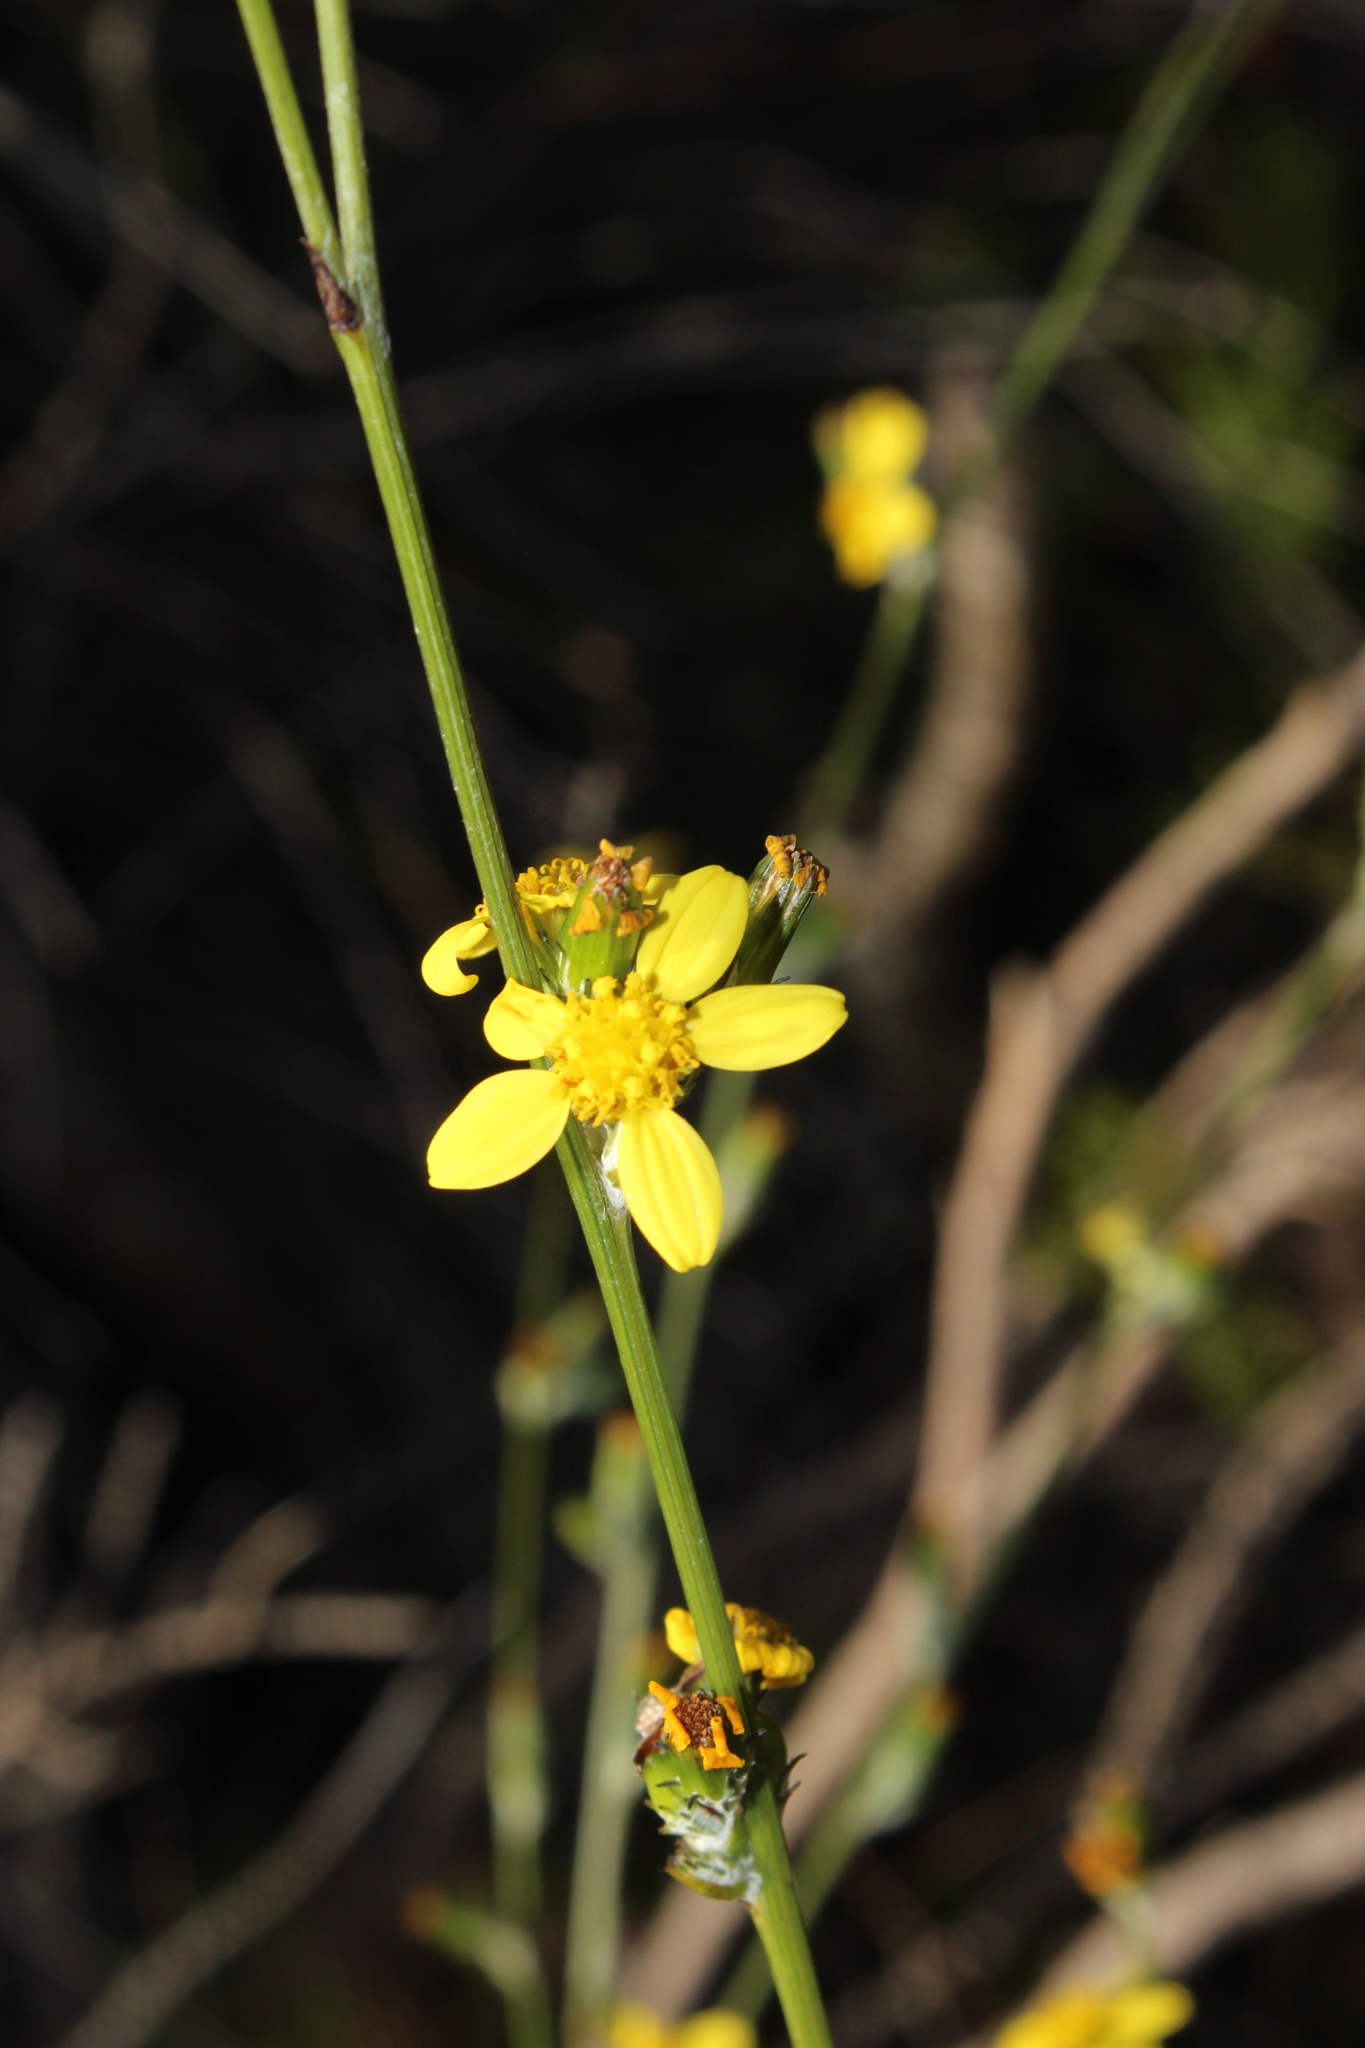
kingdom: Plantae
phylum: Tracheophyta
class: Magnoliopsida
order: Asterales
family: Asteraceae
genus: Senecio
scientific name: Senecio pubigerus
